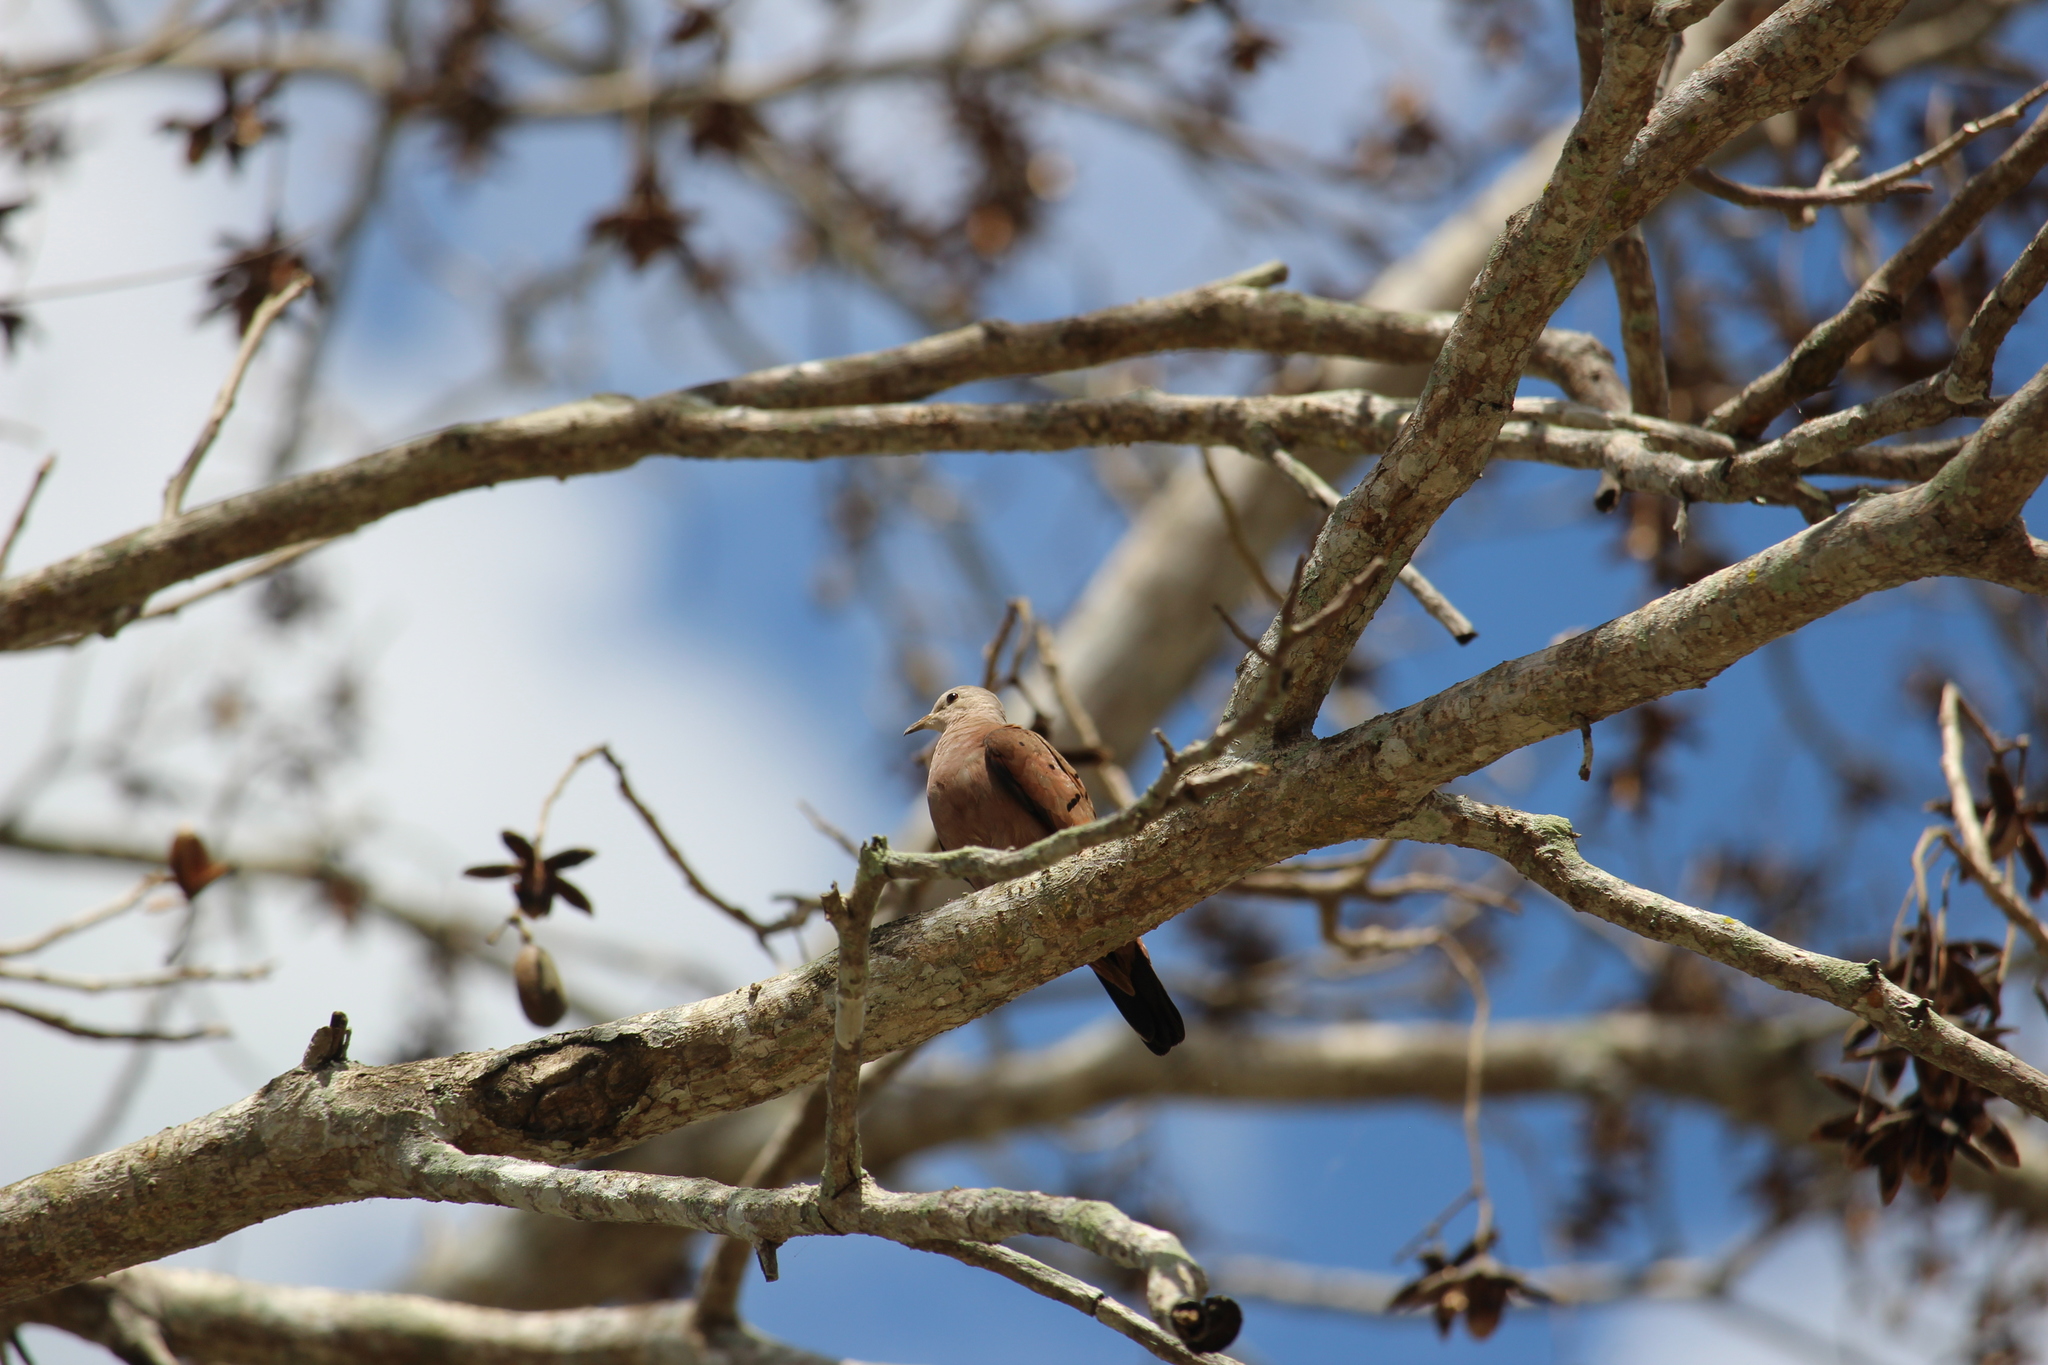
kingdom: Animalia
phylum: Chordata
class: Aves
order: Columbiformes
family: Columbidae
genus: Columbina
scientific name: Columbina talpacoti
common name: Ruddy ground dove
